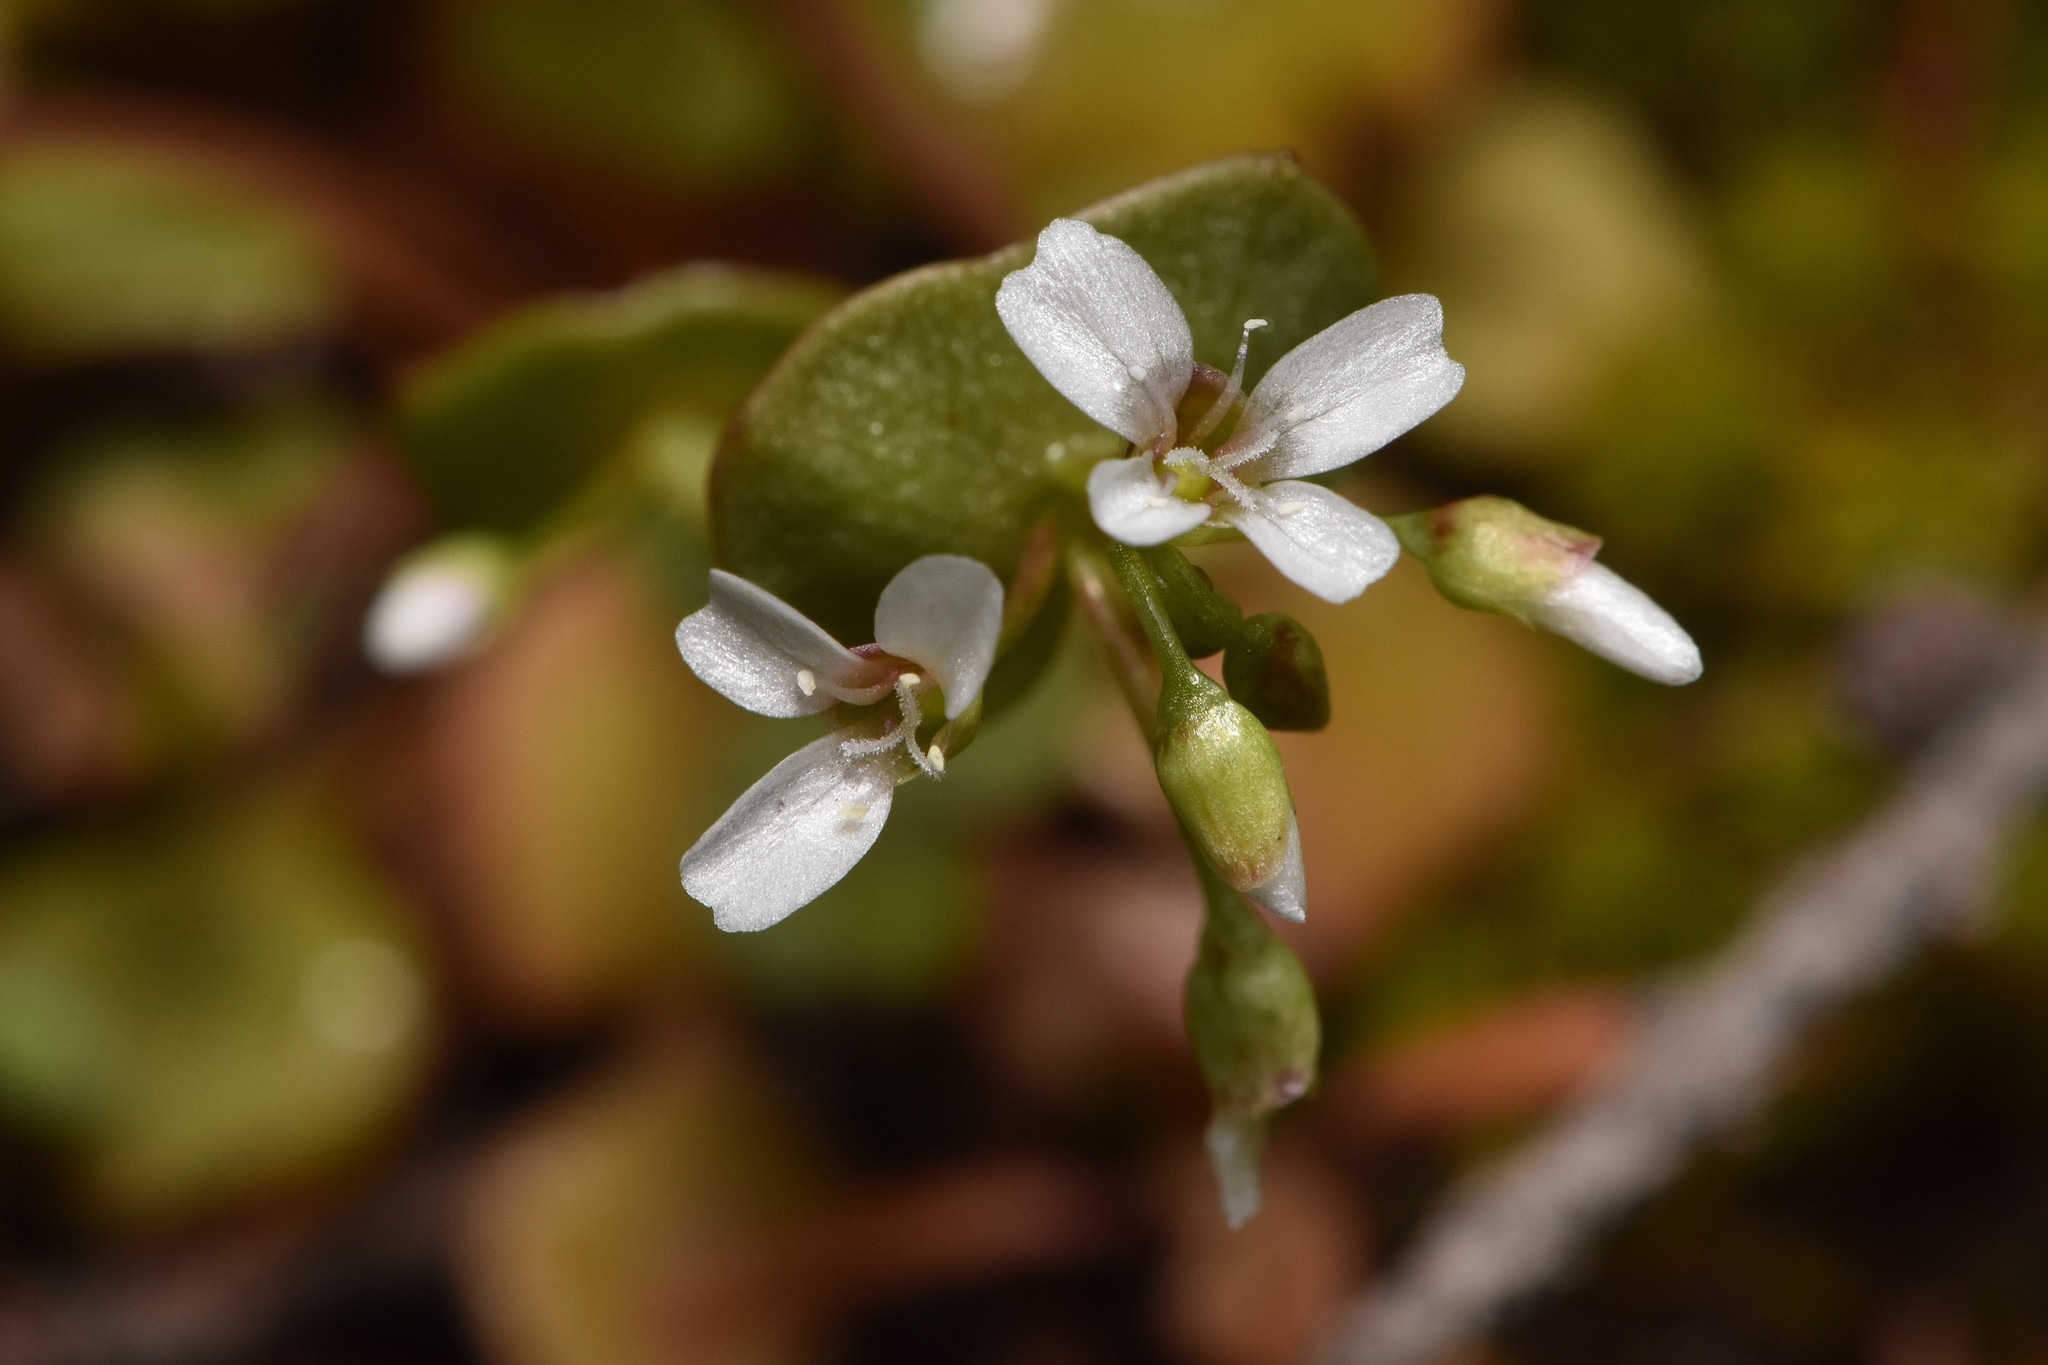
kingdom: Plantae
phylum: Tracheophyta
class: Magnoliopsida
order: Caryophyllales
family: Montiaceae
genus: Claytonia
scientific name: Claytonia rubra
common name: Erubescent miner's-lettuce
